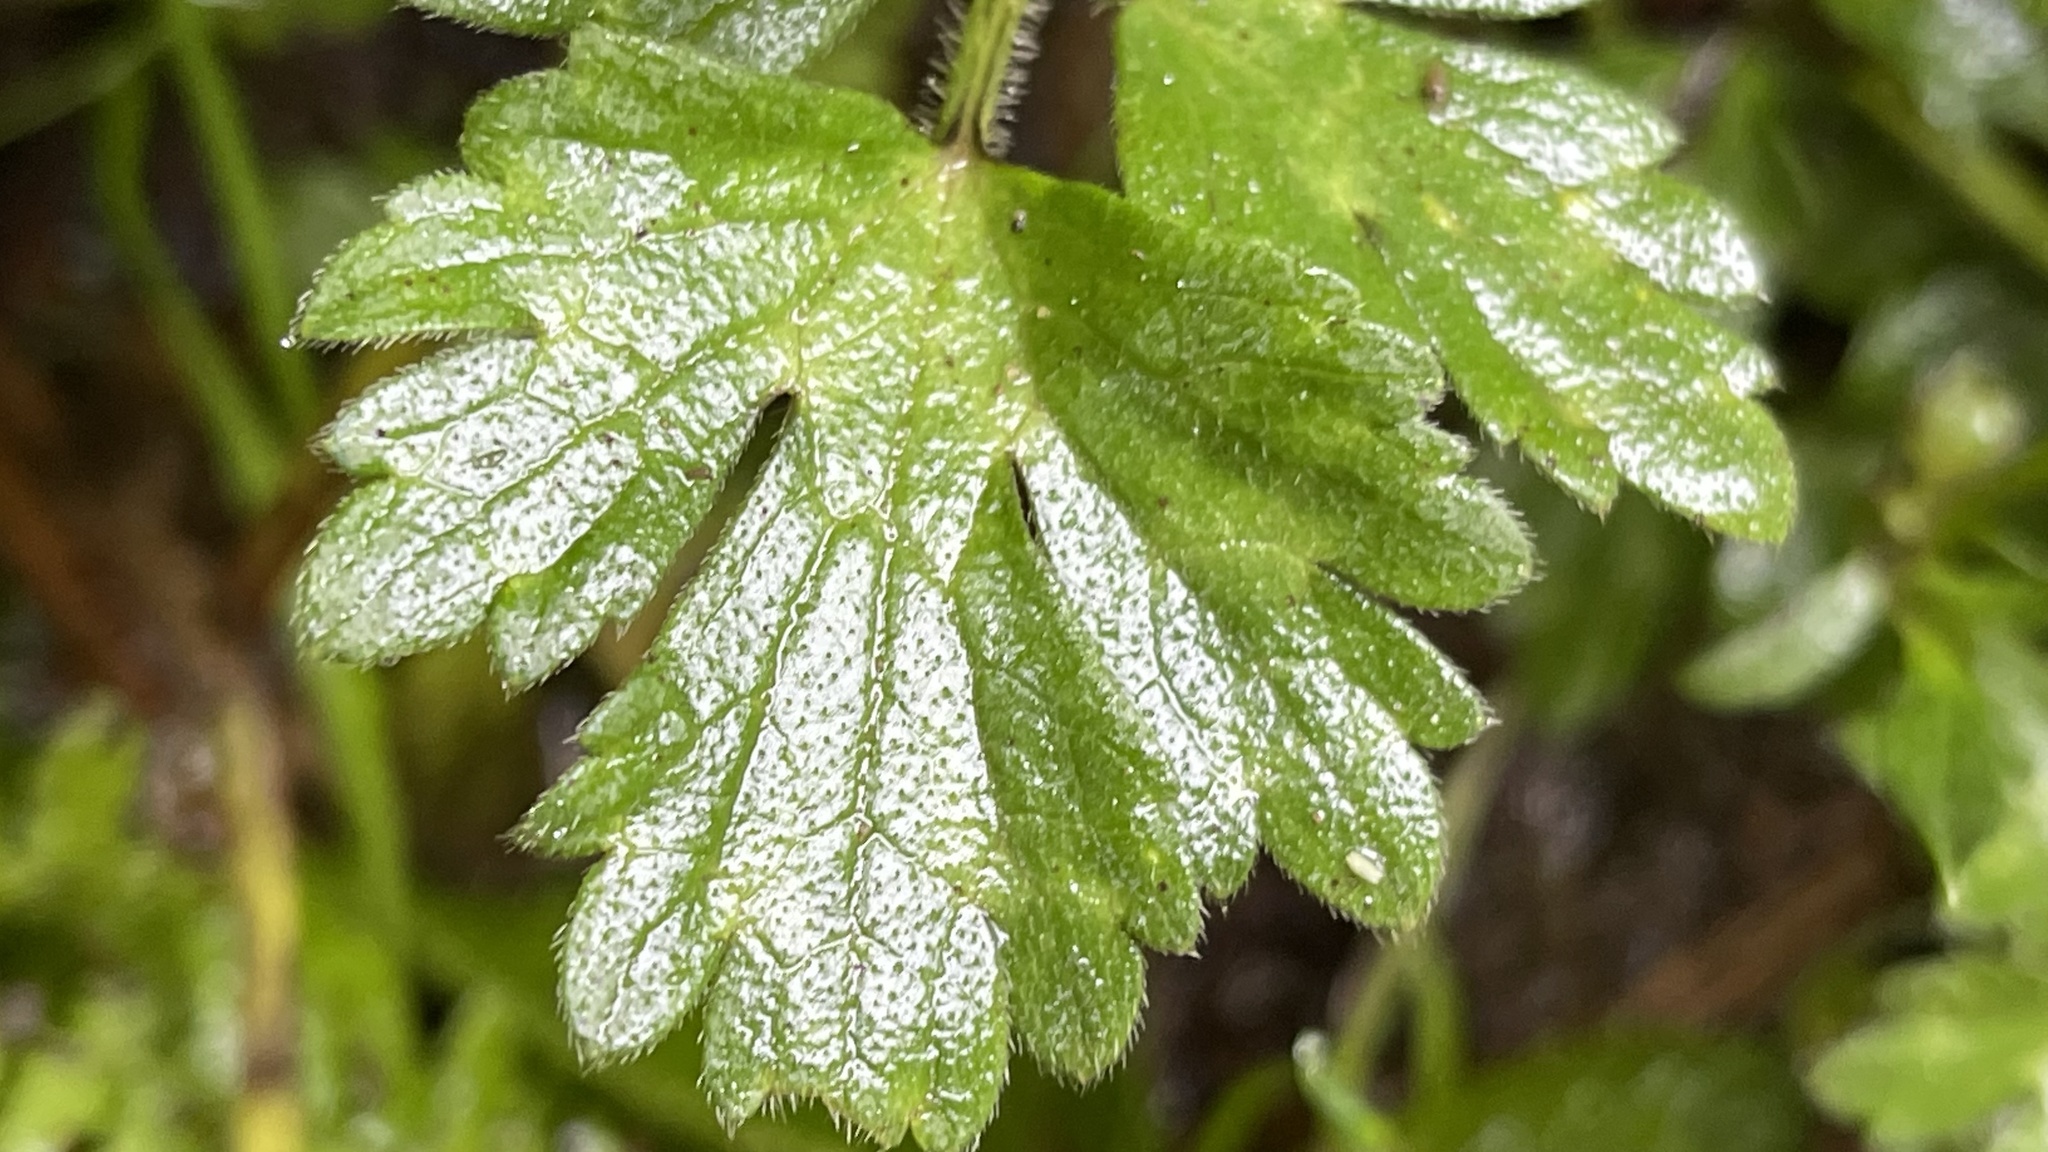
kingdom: Plantae
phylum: Tracheophyta
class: Magnoliopsida
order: Ranunculales
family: Ranunculaceae
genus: Ranunculus
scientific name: Ranunculus repens
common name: Creeping buttercup
